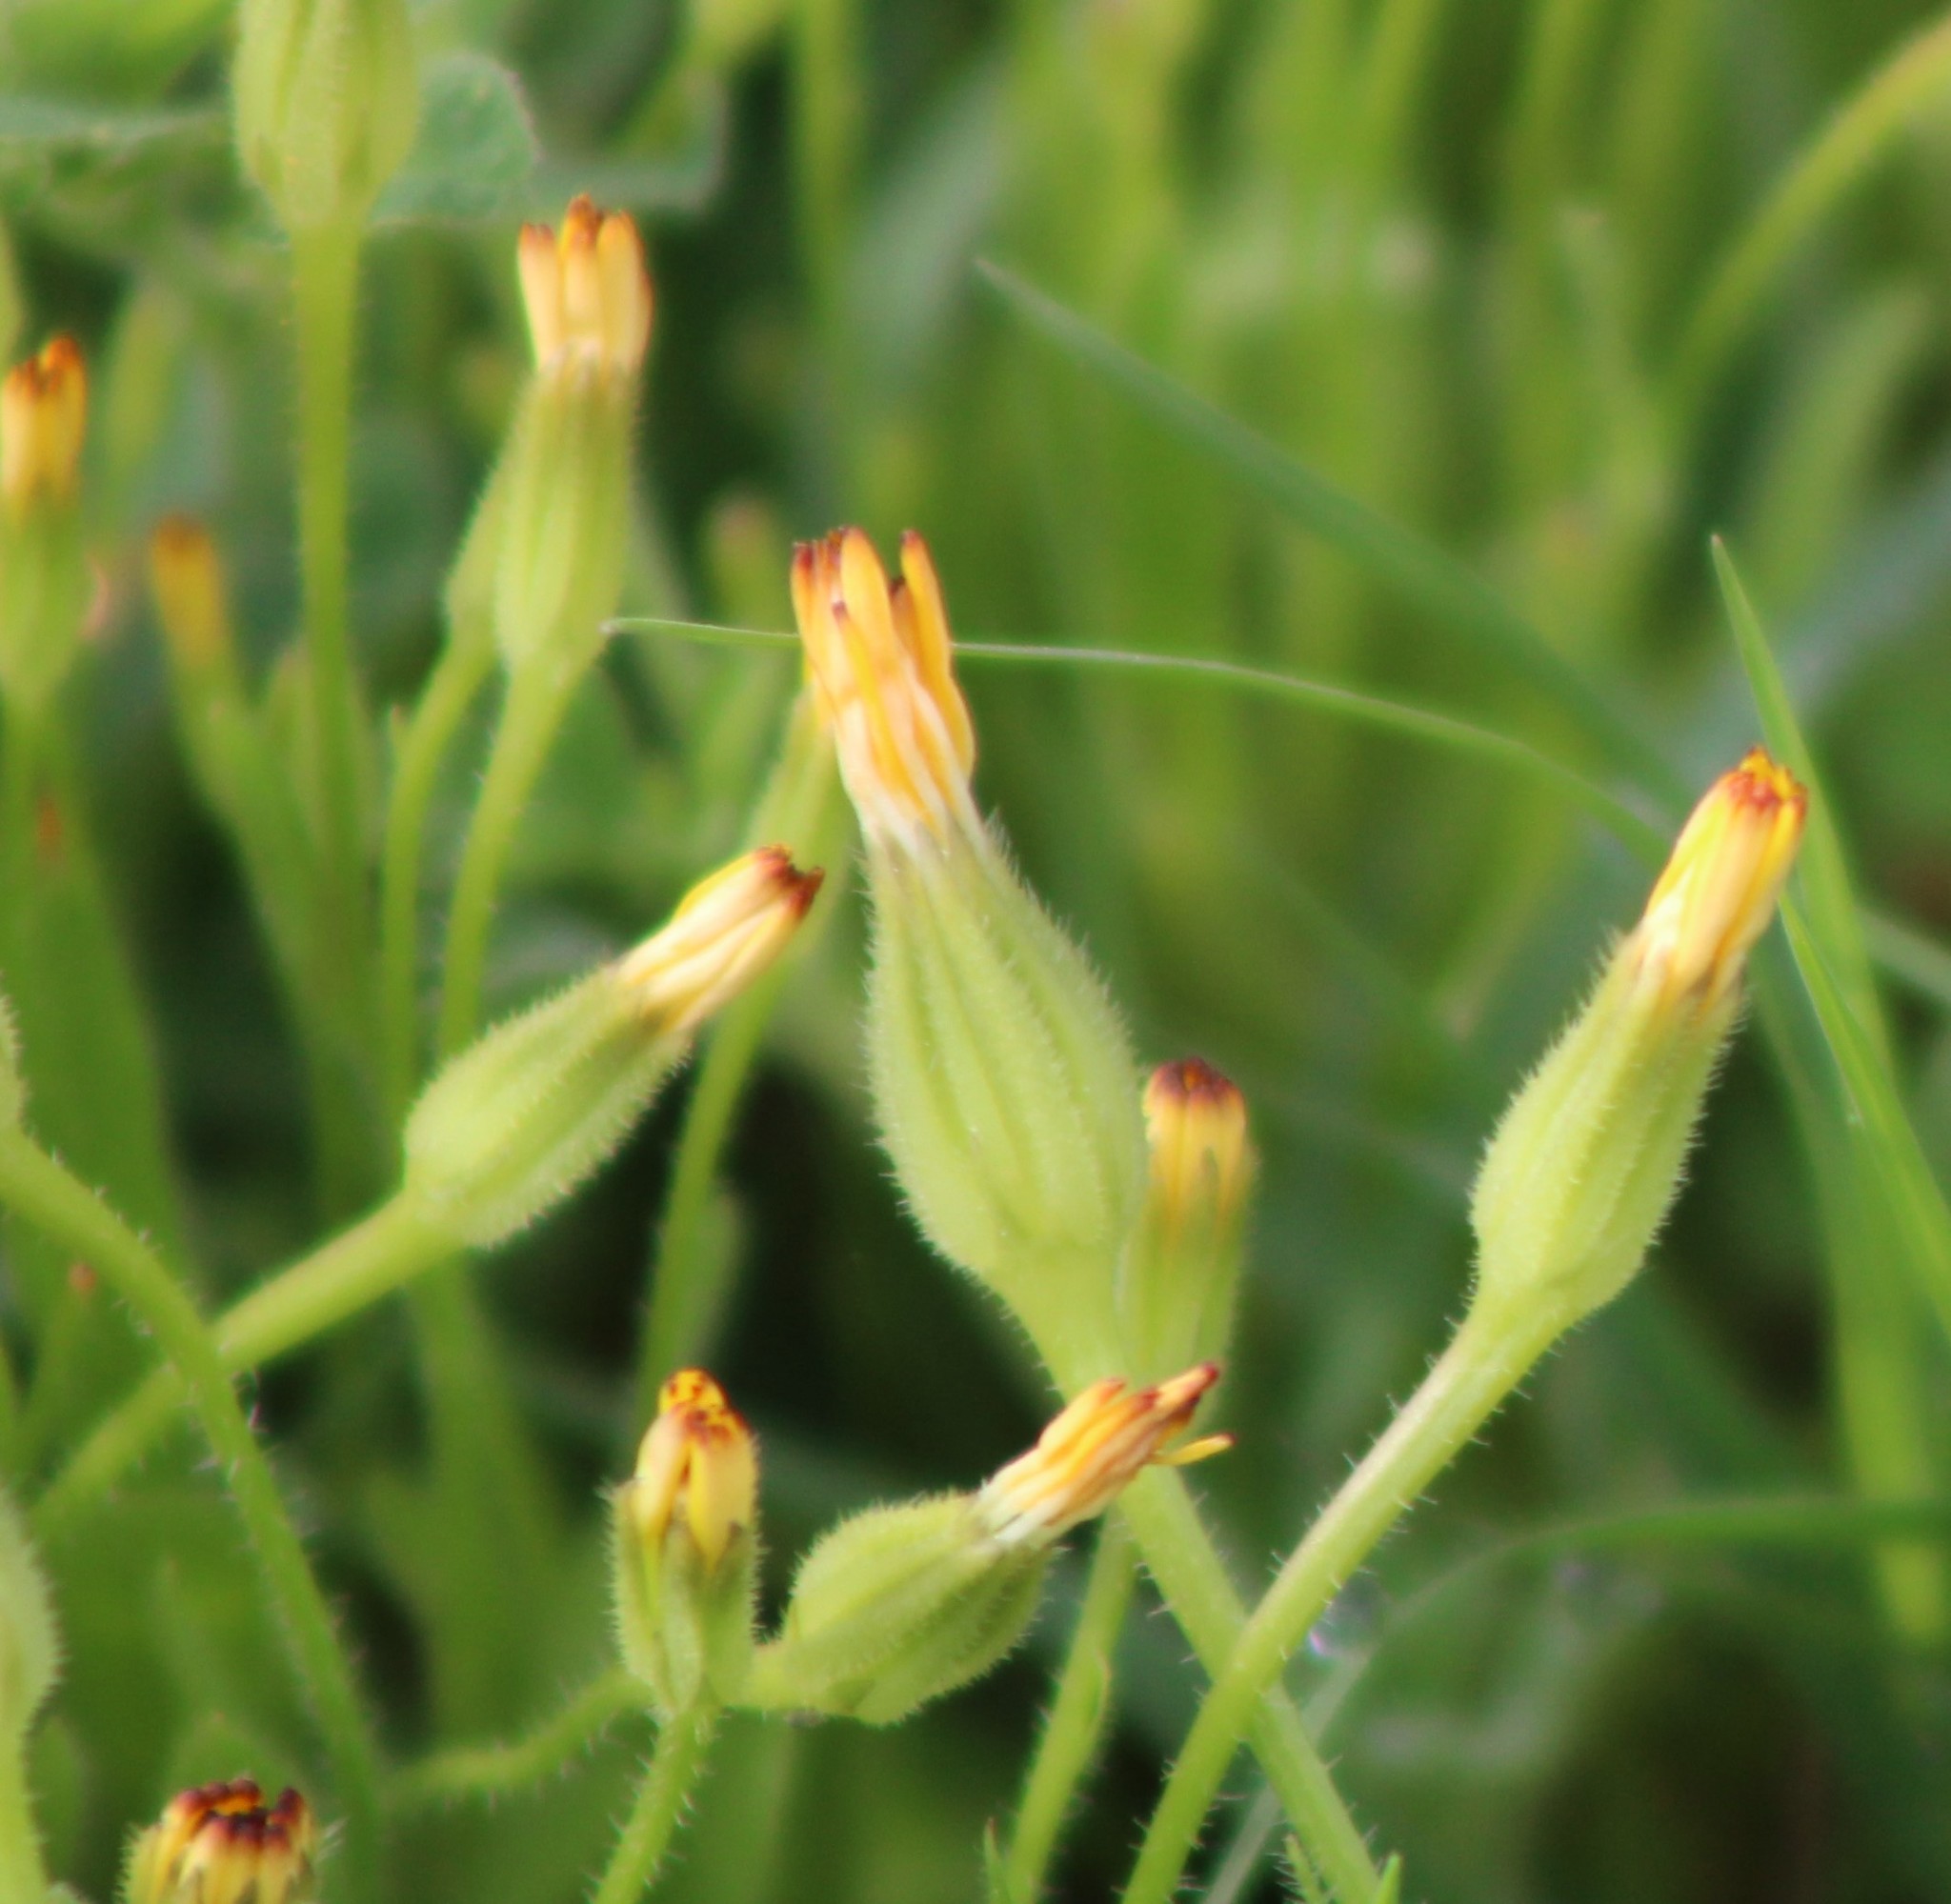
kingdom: Plantae
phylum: Tracheophyta
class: Magnoliopsida
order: Asterales
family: Asteraceae
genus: Hedypnois
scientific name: Hedypnois rhagadioloides
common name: Cretan weed
